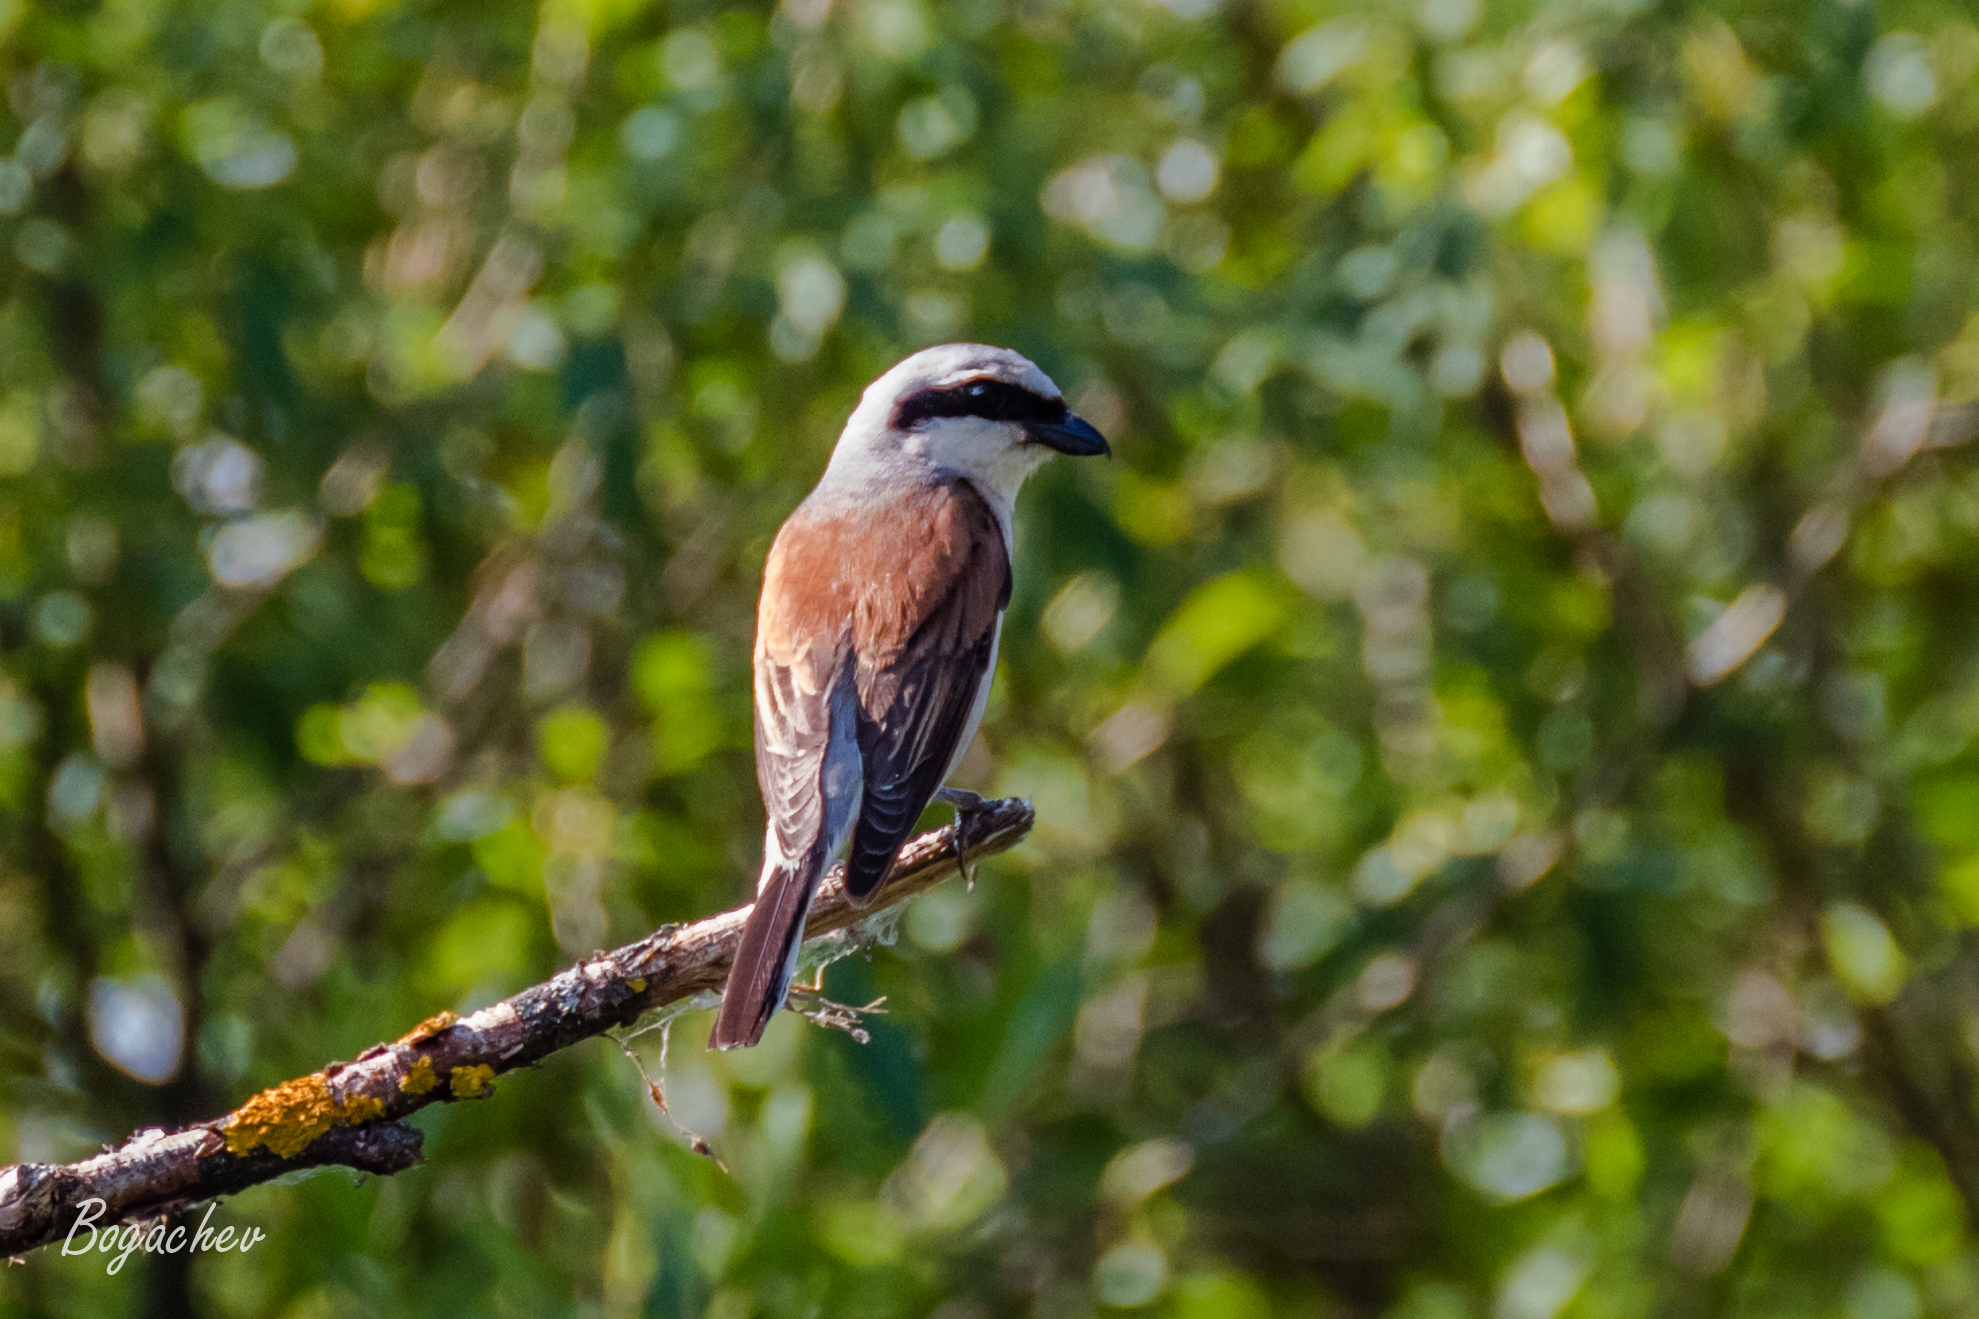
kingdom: Animalia
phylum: Chordata
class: Aves
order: Passeriformes
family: Laniidae
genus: Lanius
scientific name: Lanius collurio
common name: Red-backed shrike
